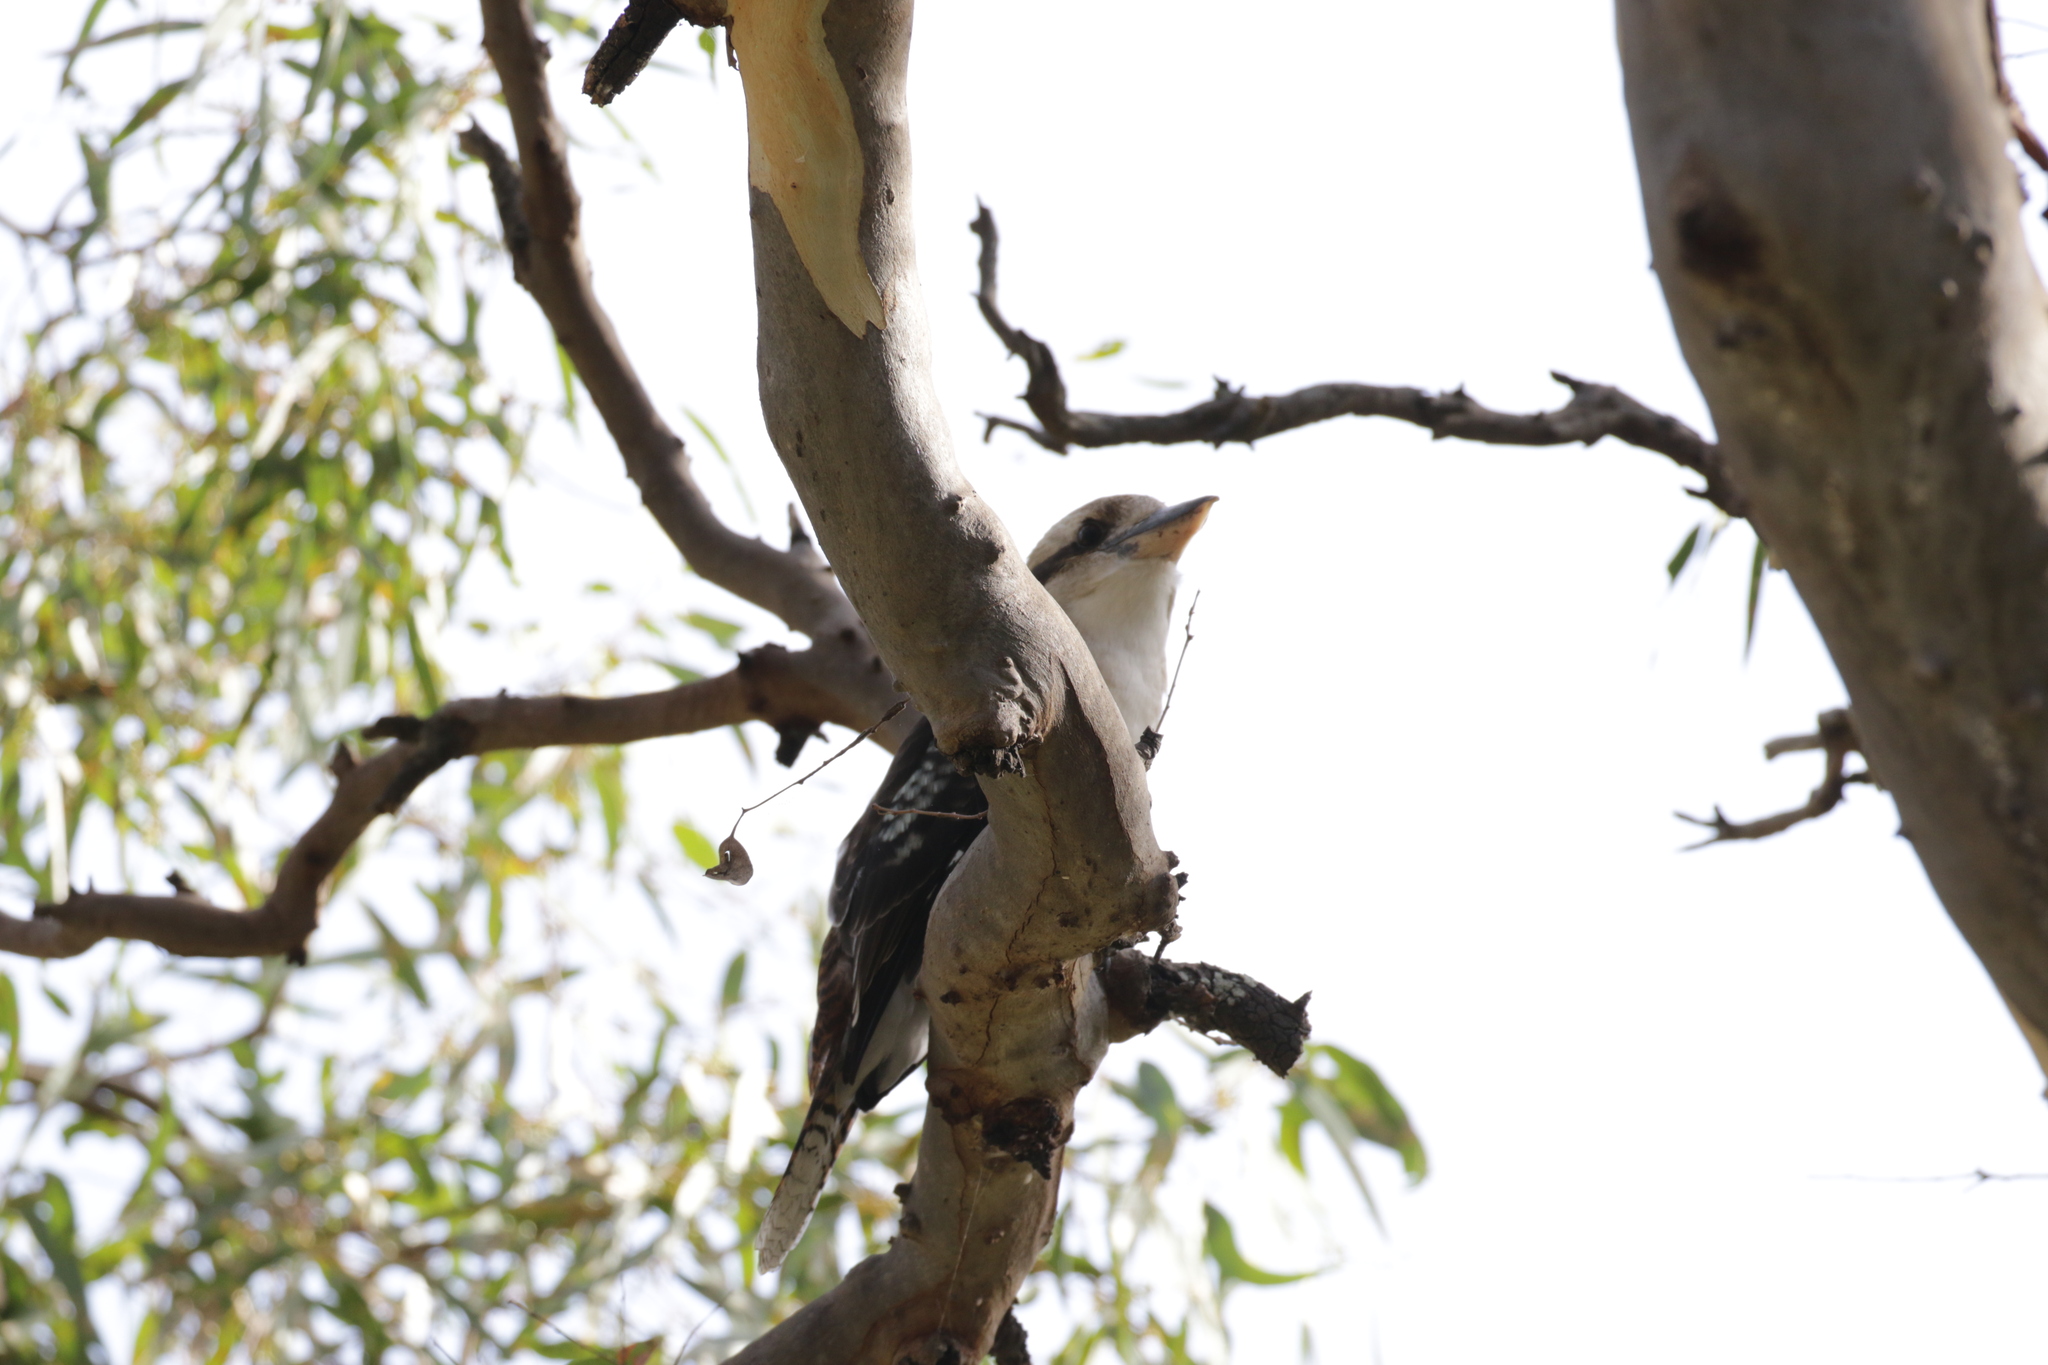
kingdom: Animalia
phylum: Chordata
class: Aves
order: Coraciiformes
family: Alcedinidae
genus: Dacelo
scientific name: Dacelo novaeguineae
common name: Laughing kookaburra
